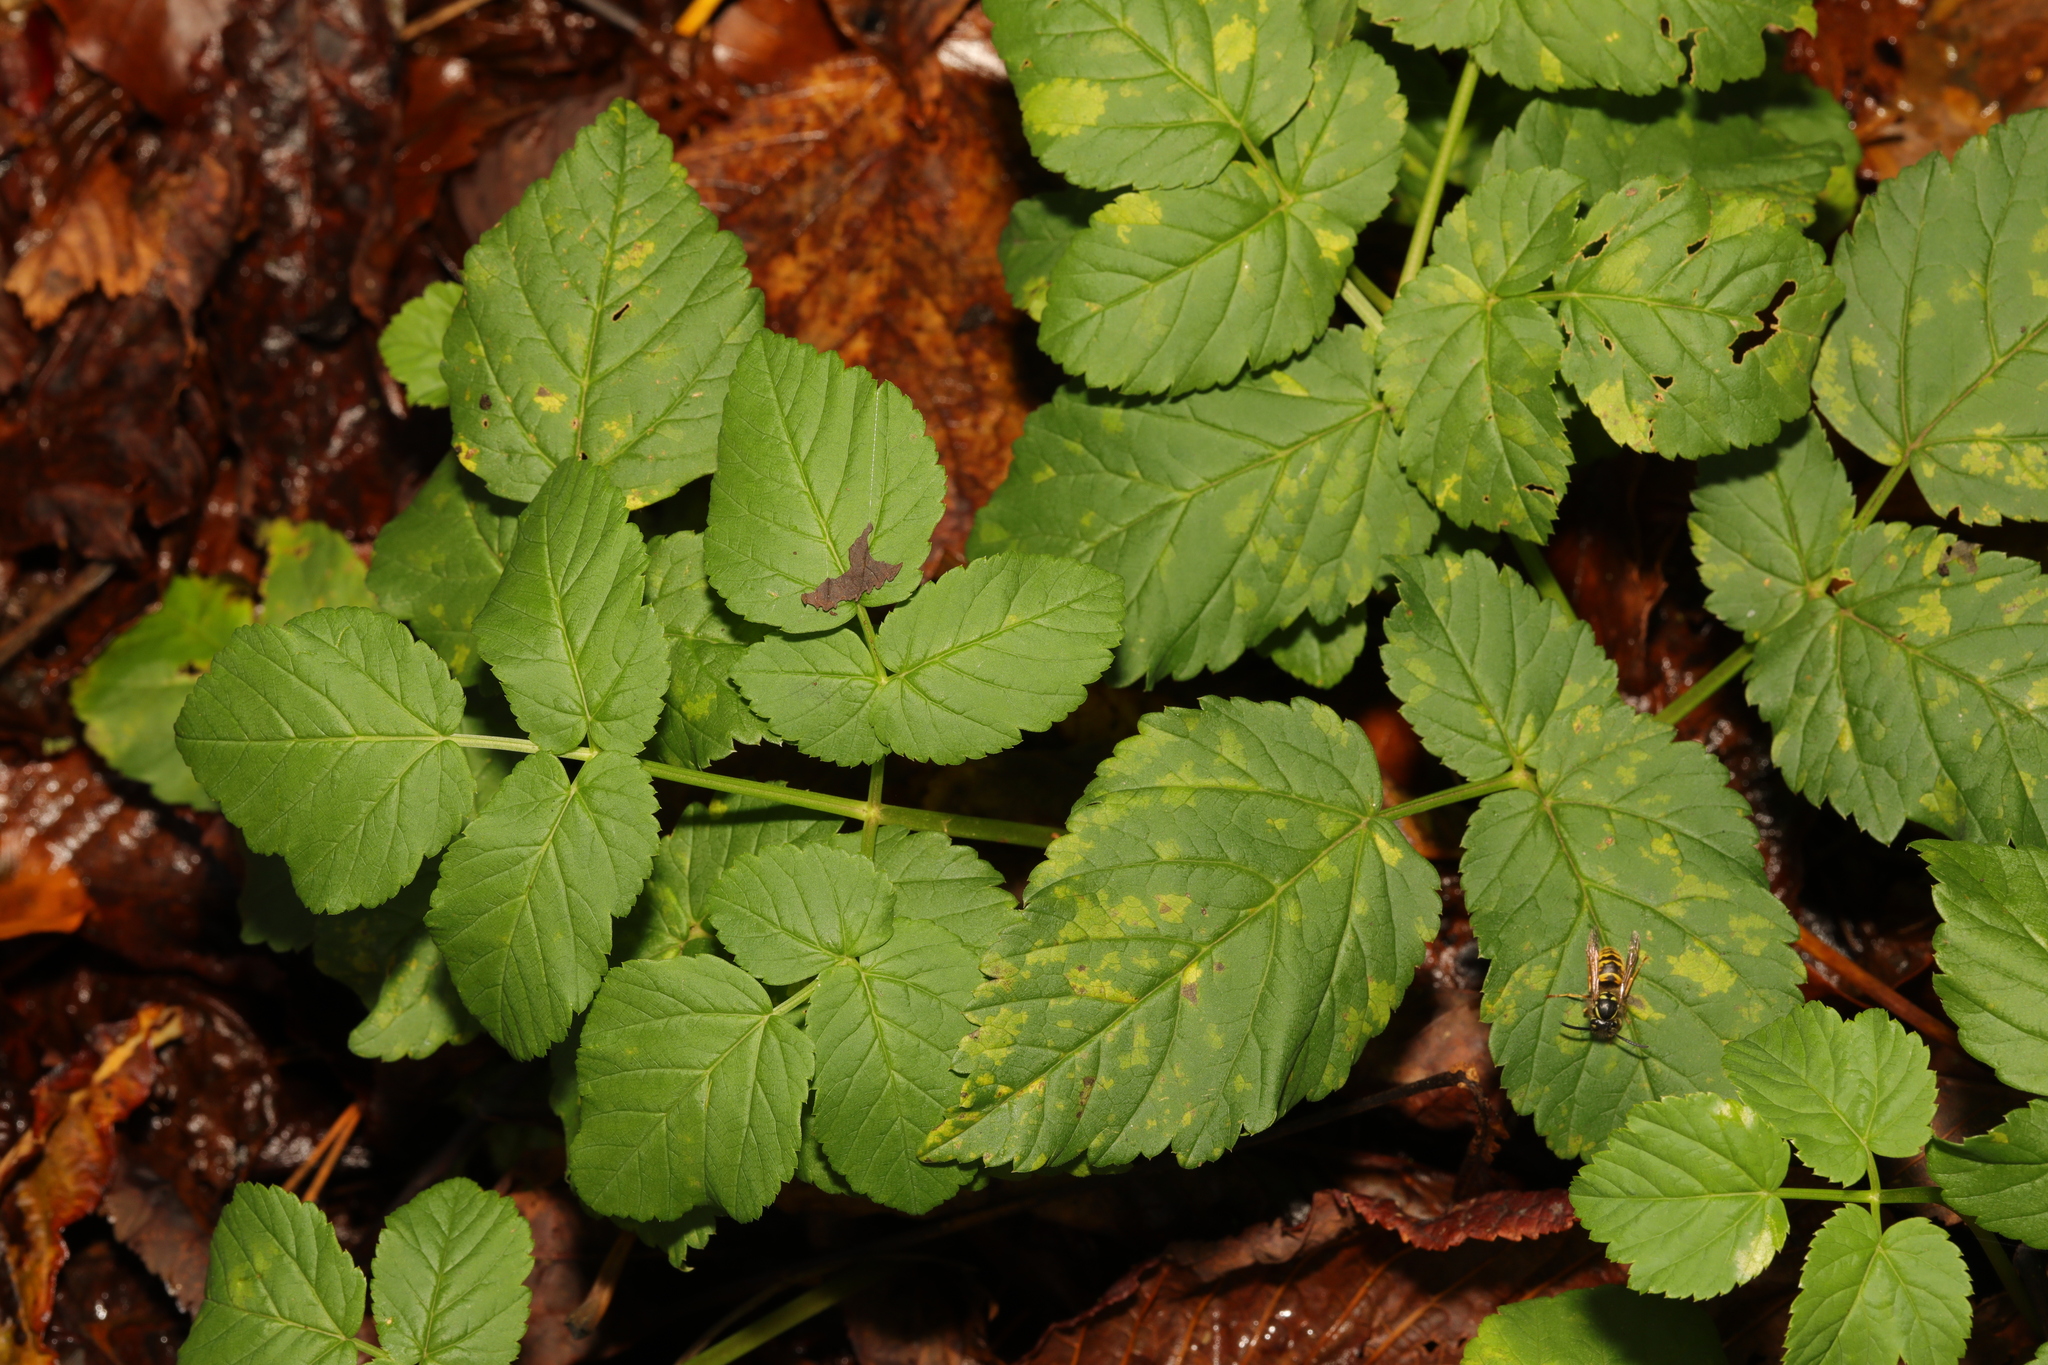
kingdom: Plantae
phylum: Tracheophyta
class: Magnoliopsida
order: Apiales
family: Apiaceae
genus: Aegopodium
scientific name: Aegopodium podagraria
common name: Ground-elder
